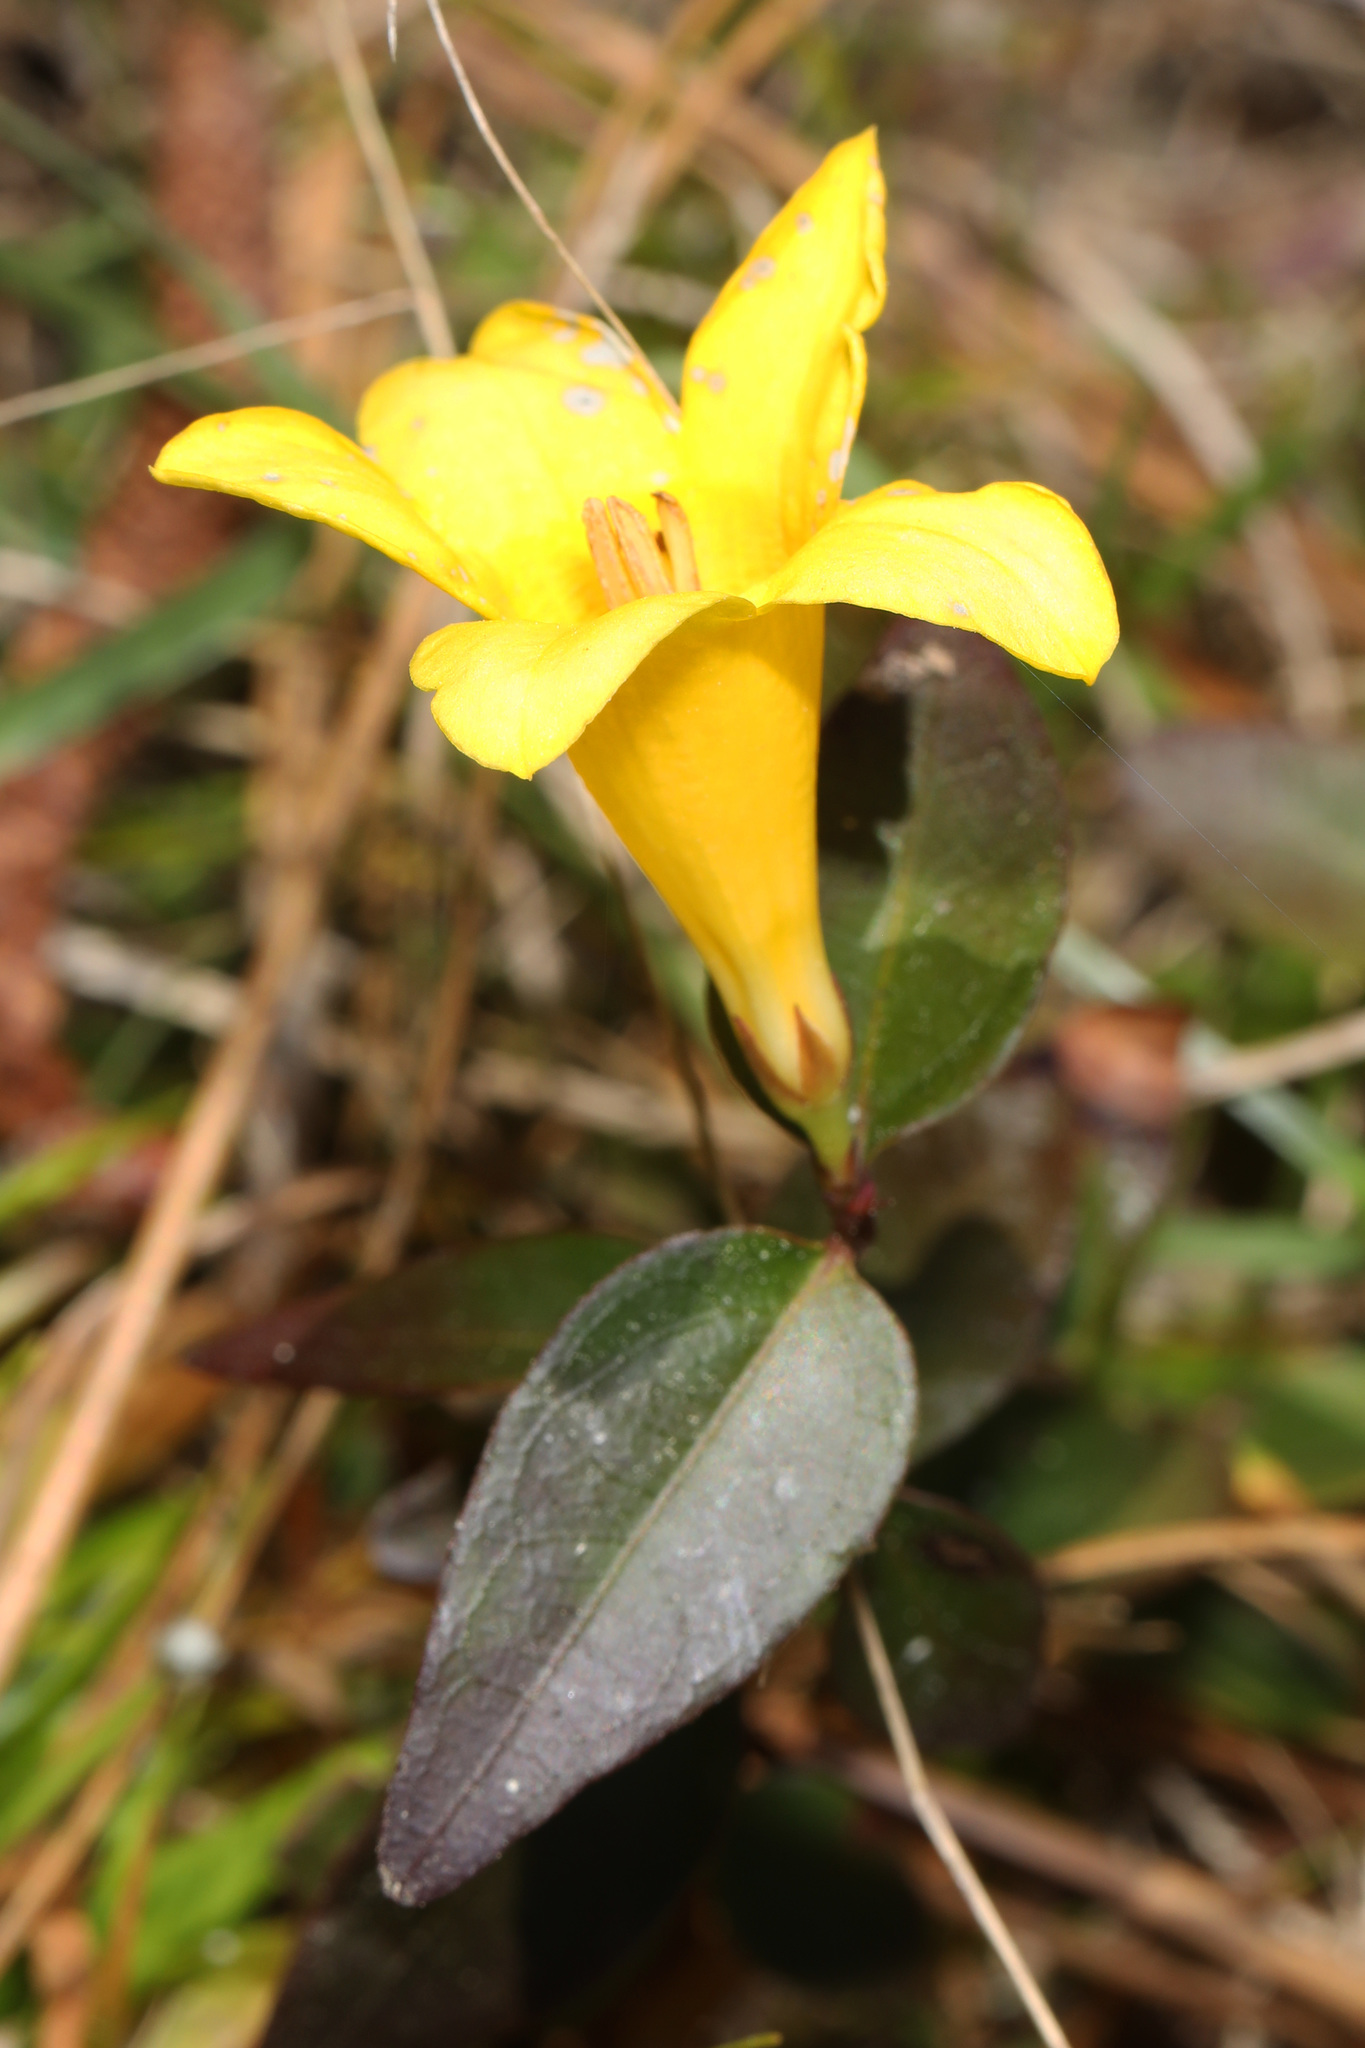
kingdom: Plantae
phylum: Tracheophyta
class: Magnoliopsida
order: Gentianales
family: Gelsemiaceae
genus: Gelsemium
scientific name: Gelsemium rankinii
